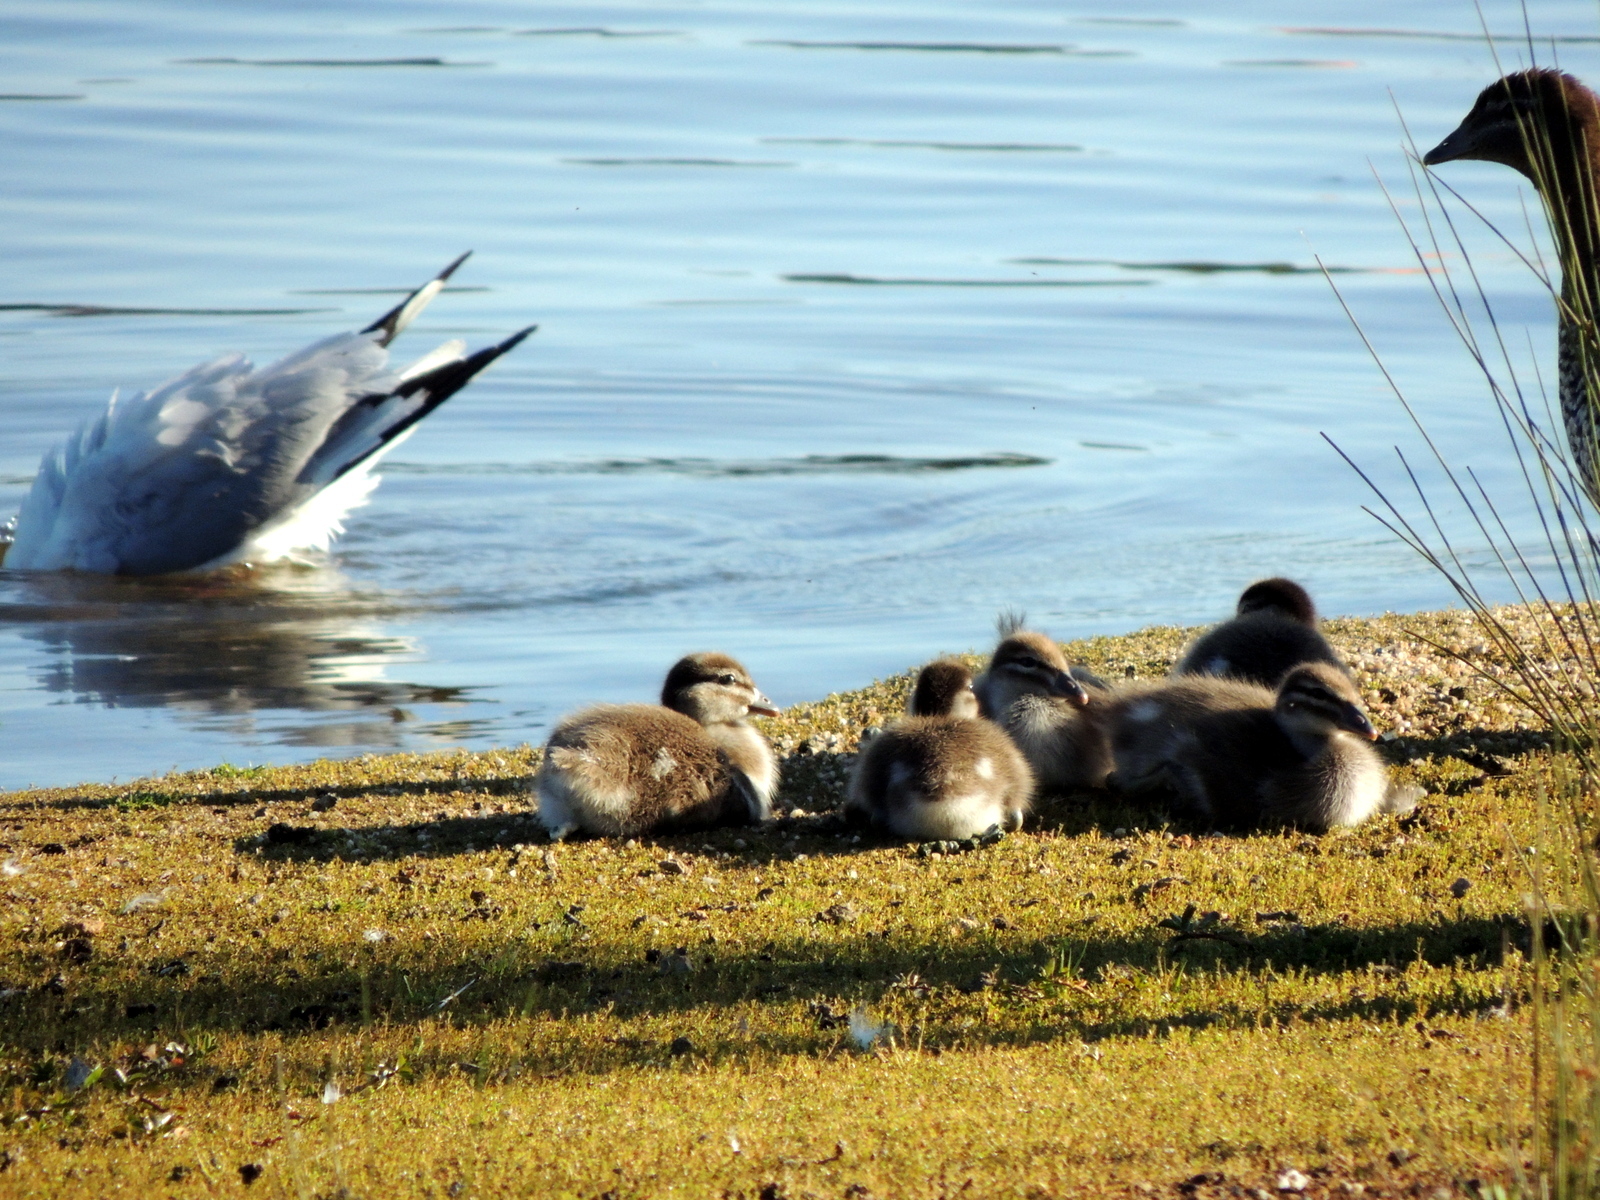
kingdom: Animalia
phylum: Chordata
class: Aves
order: Anseriformes
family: Anatidae
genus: Chenonetta
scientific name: Chenonetta jubata
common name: Maned duck
